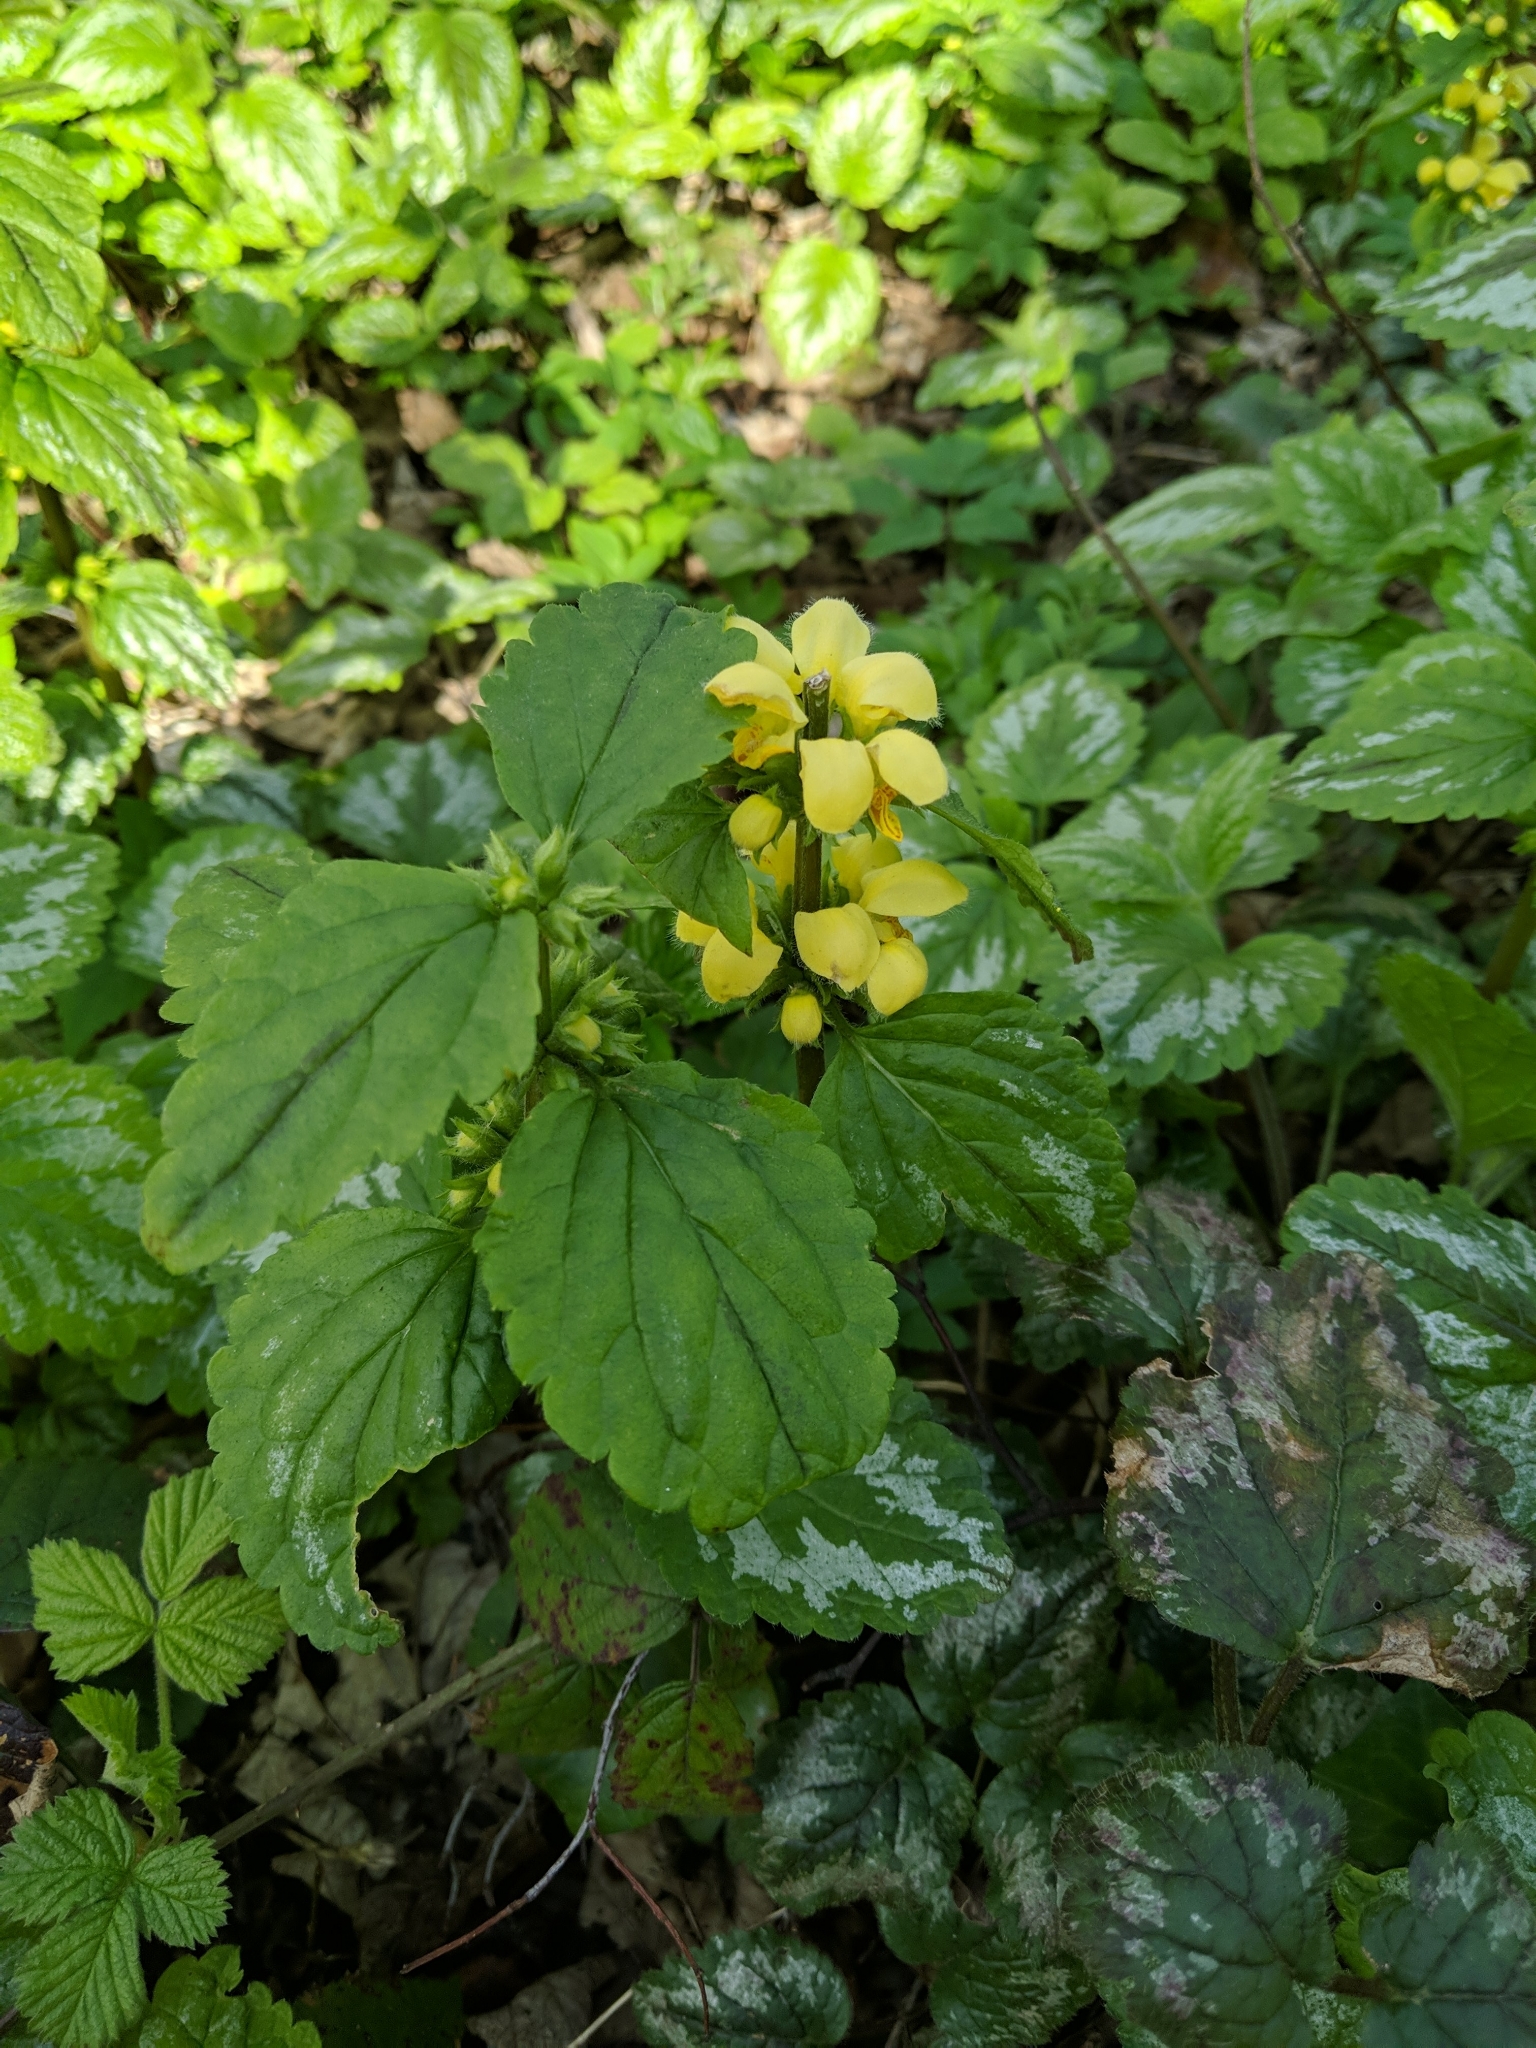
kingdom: Plantae
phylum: Tracheophyta
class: Magnoliopsida
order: Lamiales
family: Lamiaceae
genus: Lamium
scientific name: Lamium galeobdolon
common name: Yellow archangel
